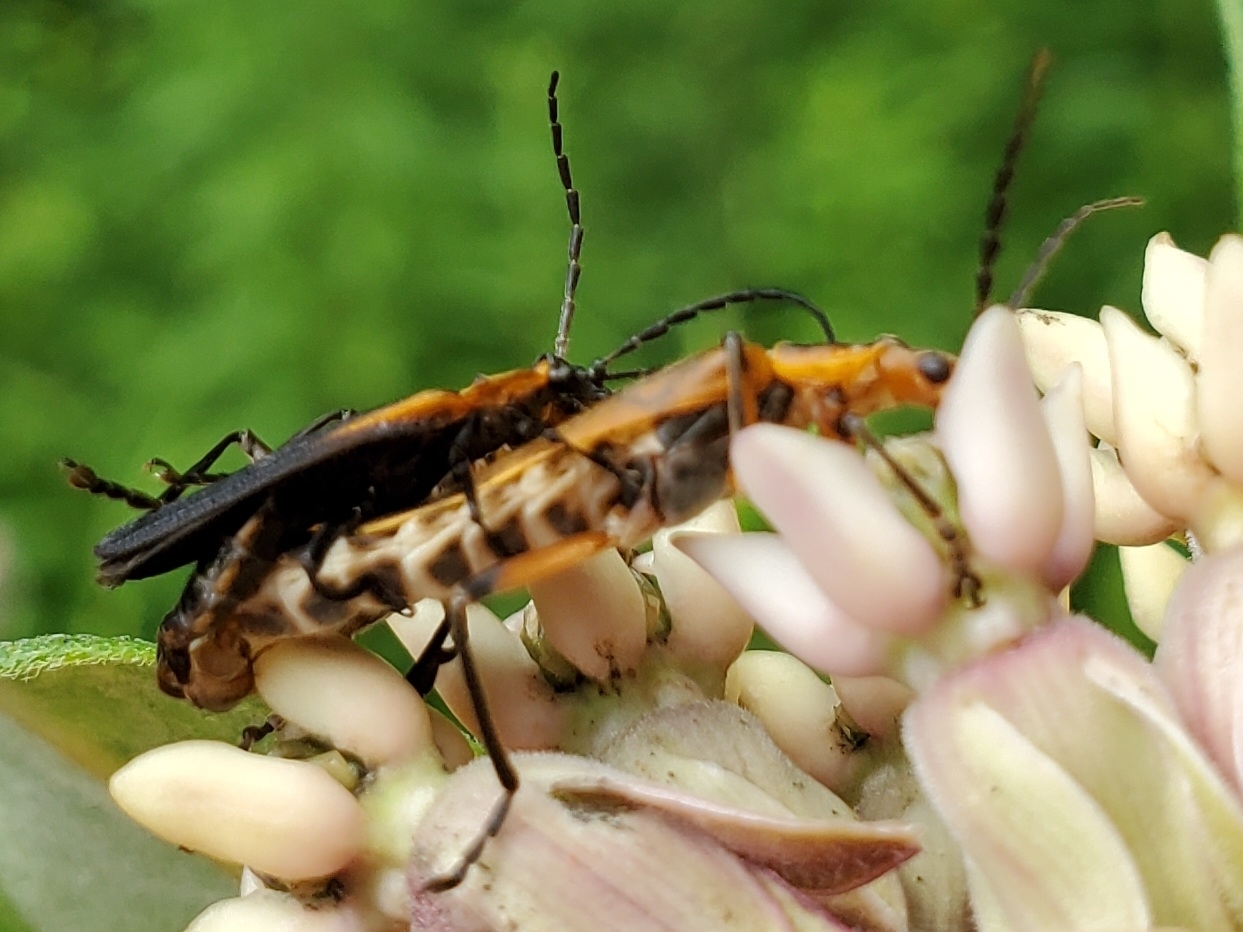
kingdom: Animalia
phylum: Arthropoda
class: Insecta
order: Coleoptera
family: Cantharidae
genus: Chauliognathus
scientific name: Chauliognathus marginatus
